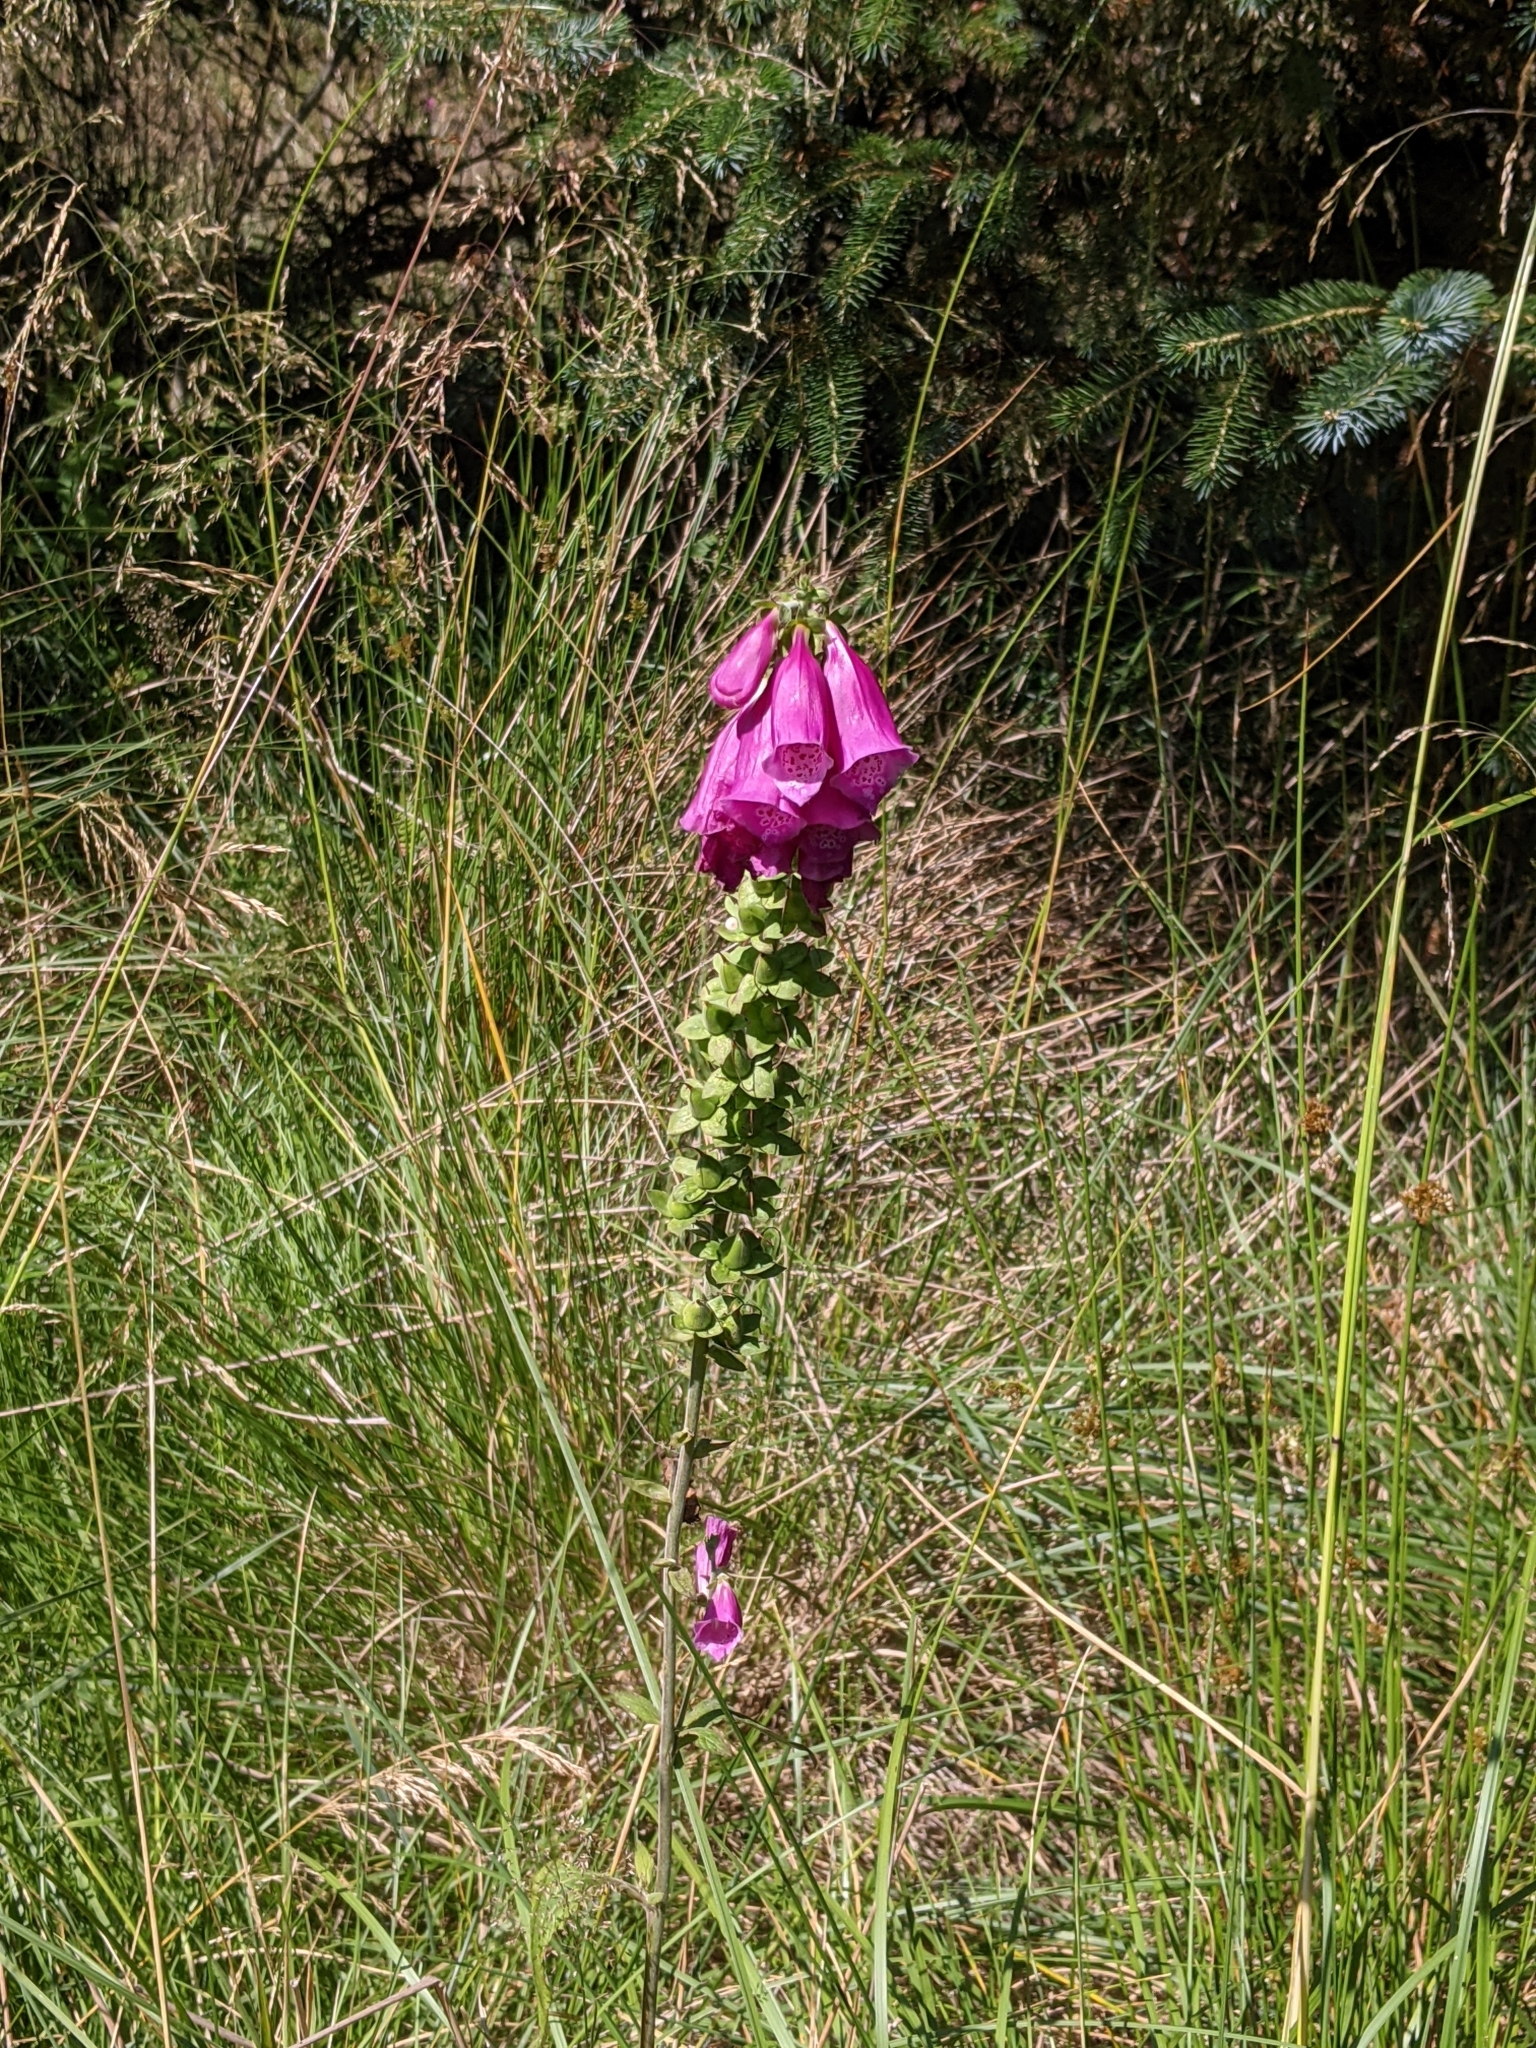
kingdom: Plantae
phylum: Tracheophyta
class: Magnoliopsida
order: Lamiales
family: Plantaginaceae
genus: Digitalis
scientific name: Digitalis purpurea
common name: Foxglove
